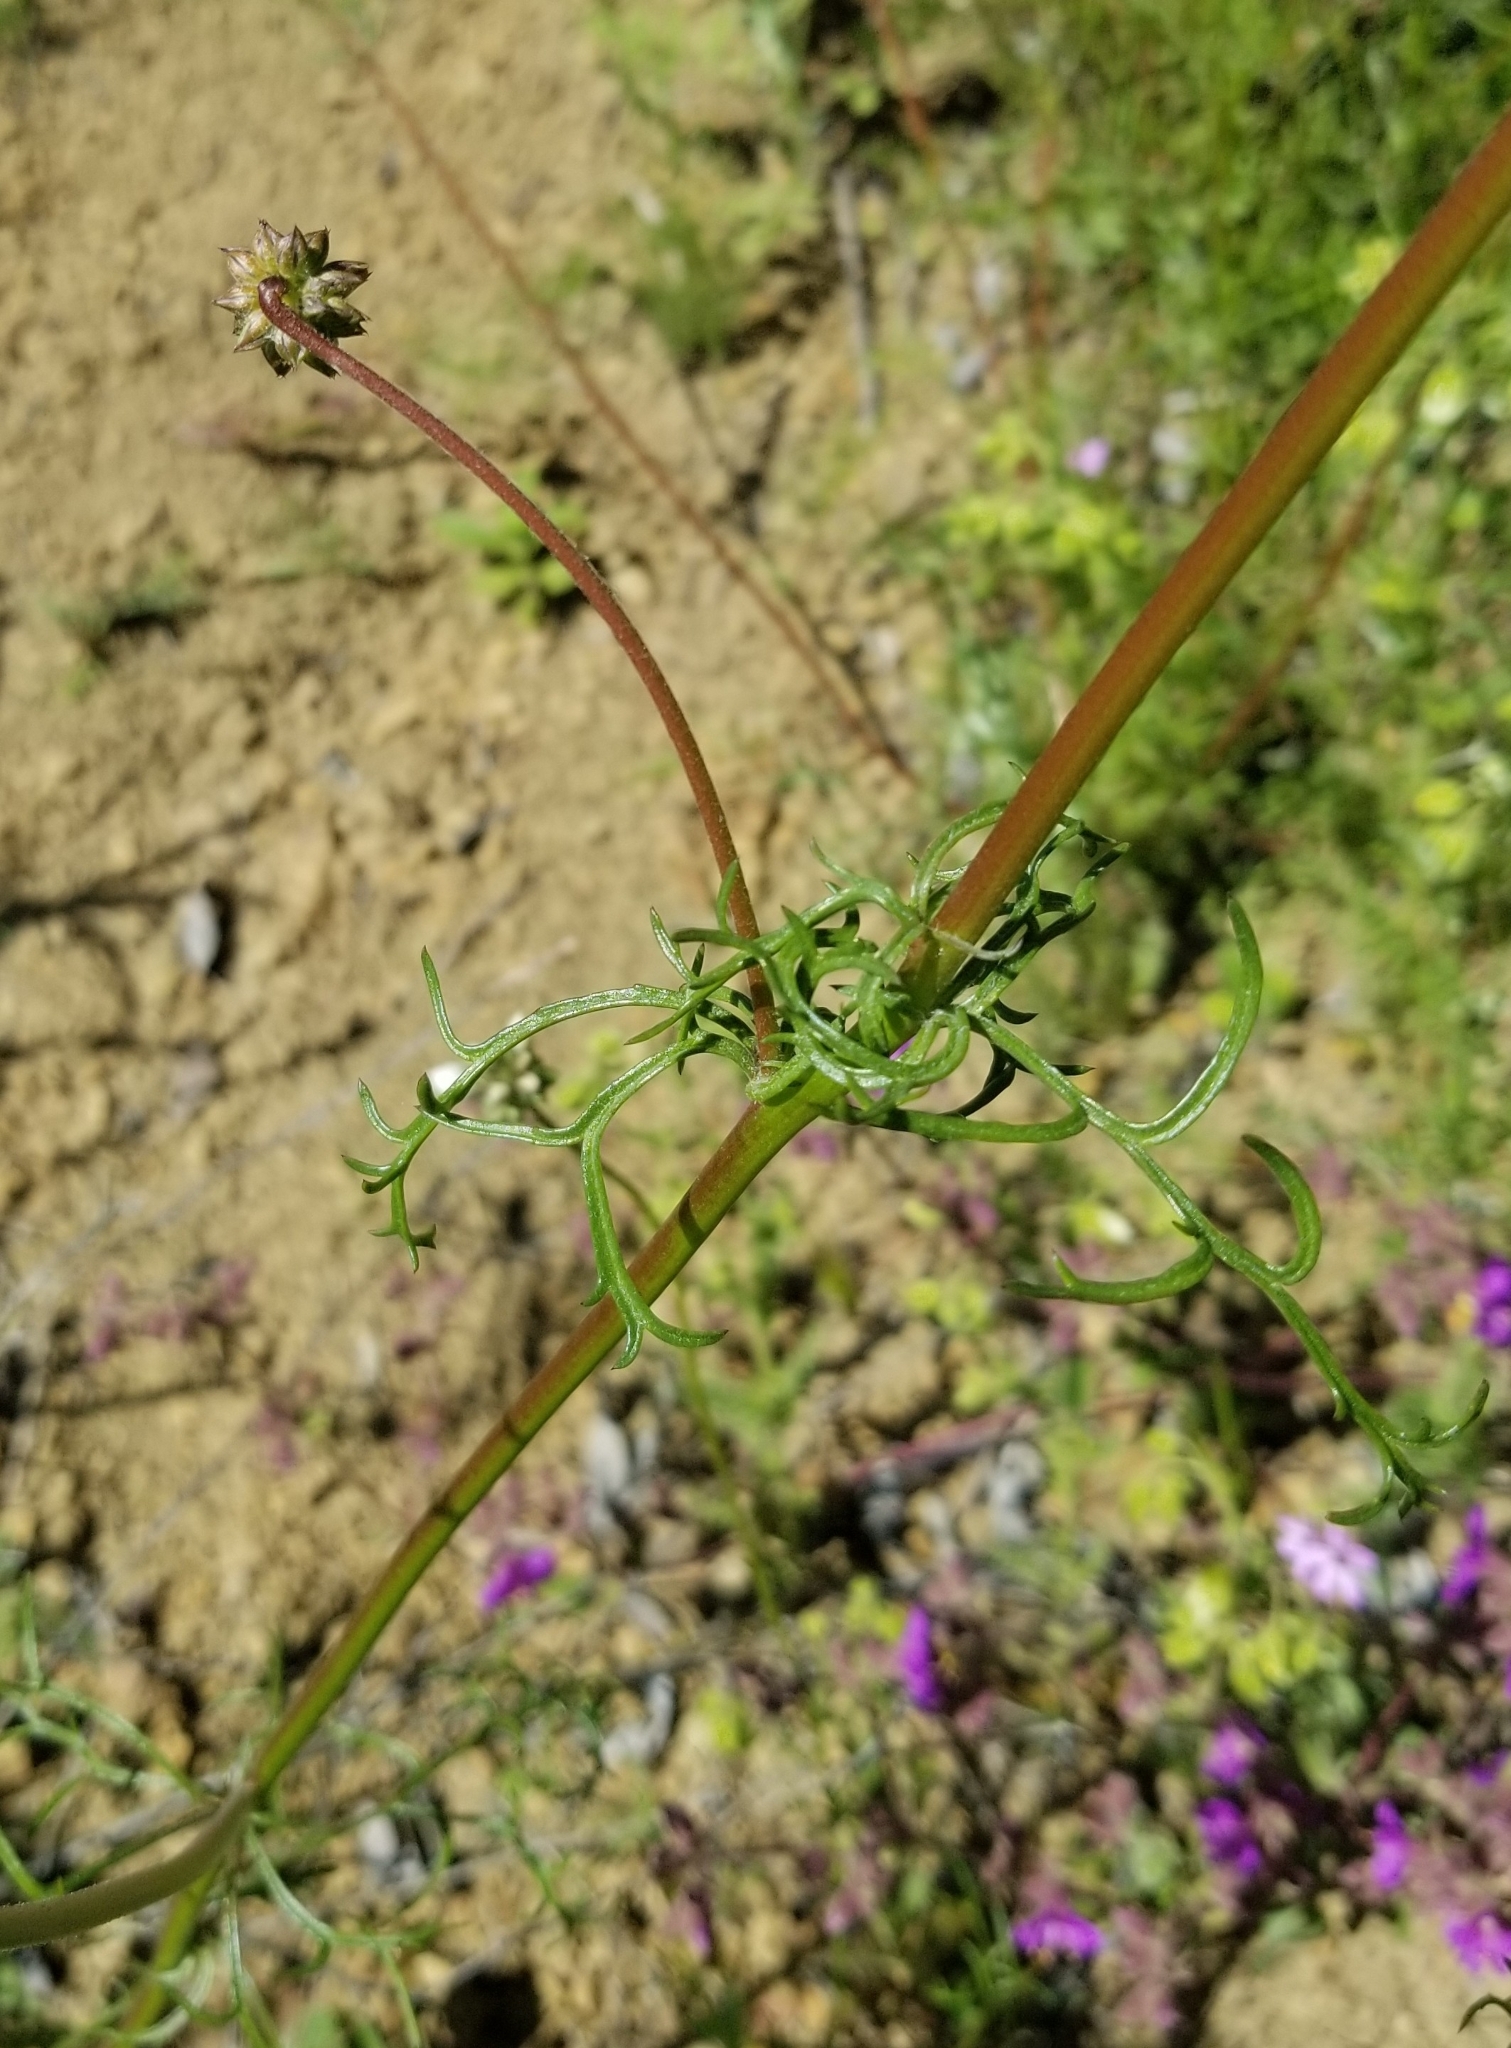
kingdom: Plantae
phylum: Tracheophyta
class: Magnoliopsida
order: Ericales
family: Polemoniaceae
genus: Gilia
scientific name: Gilia capitata
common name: Bluehead gilia
